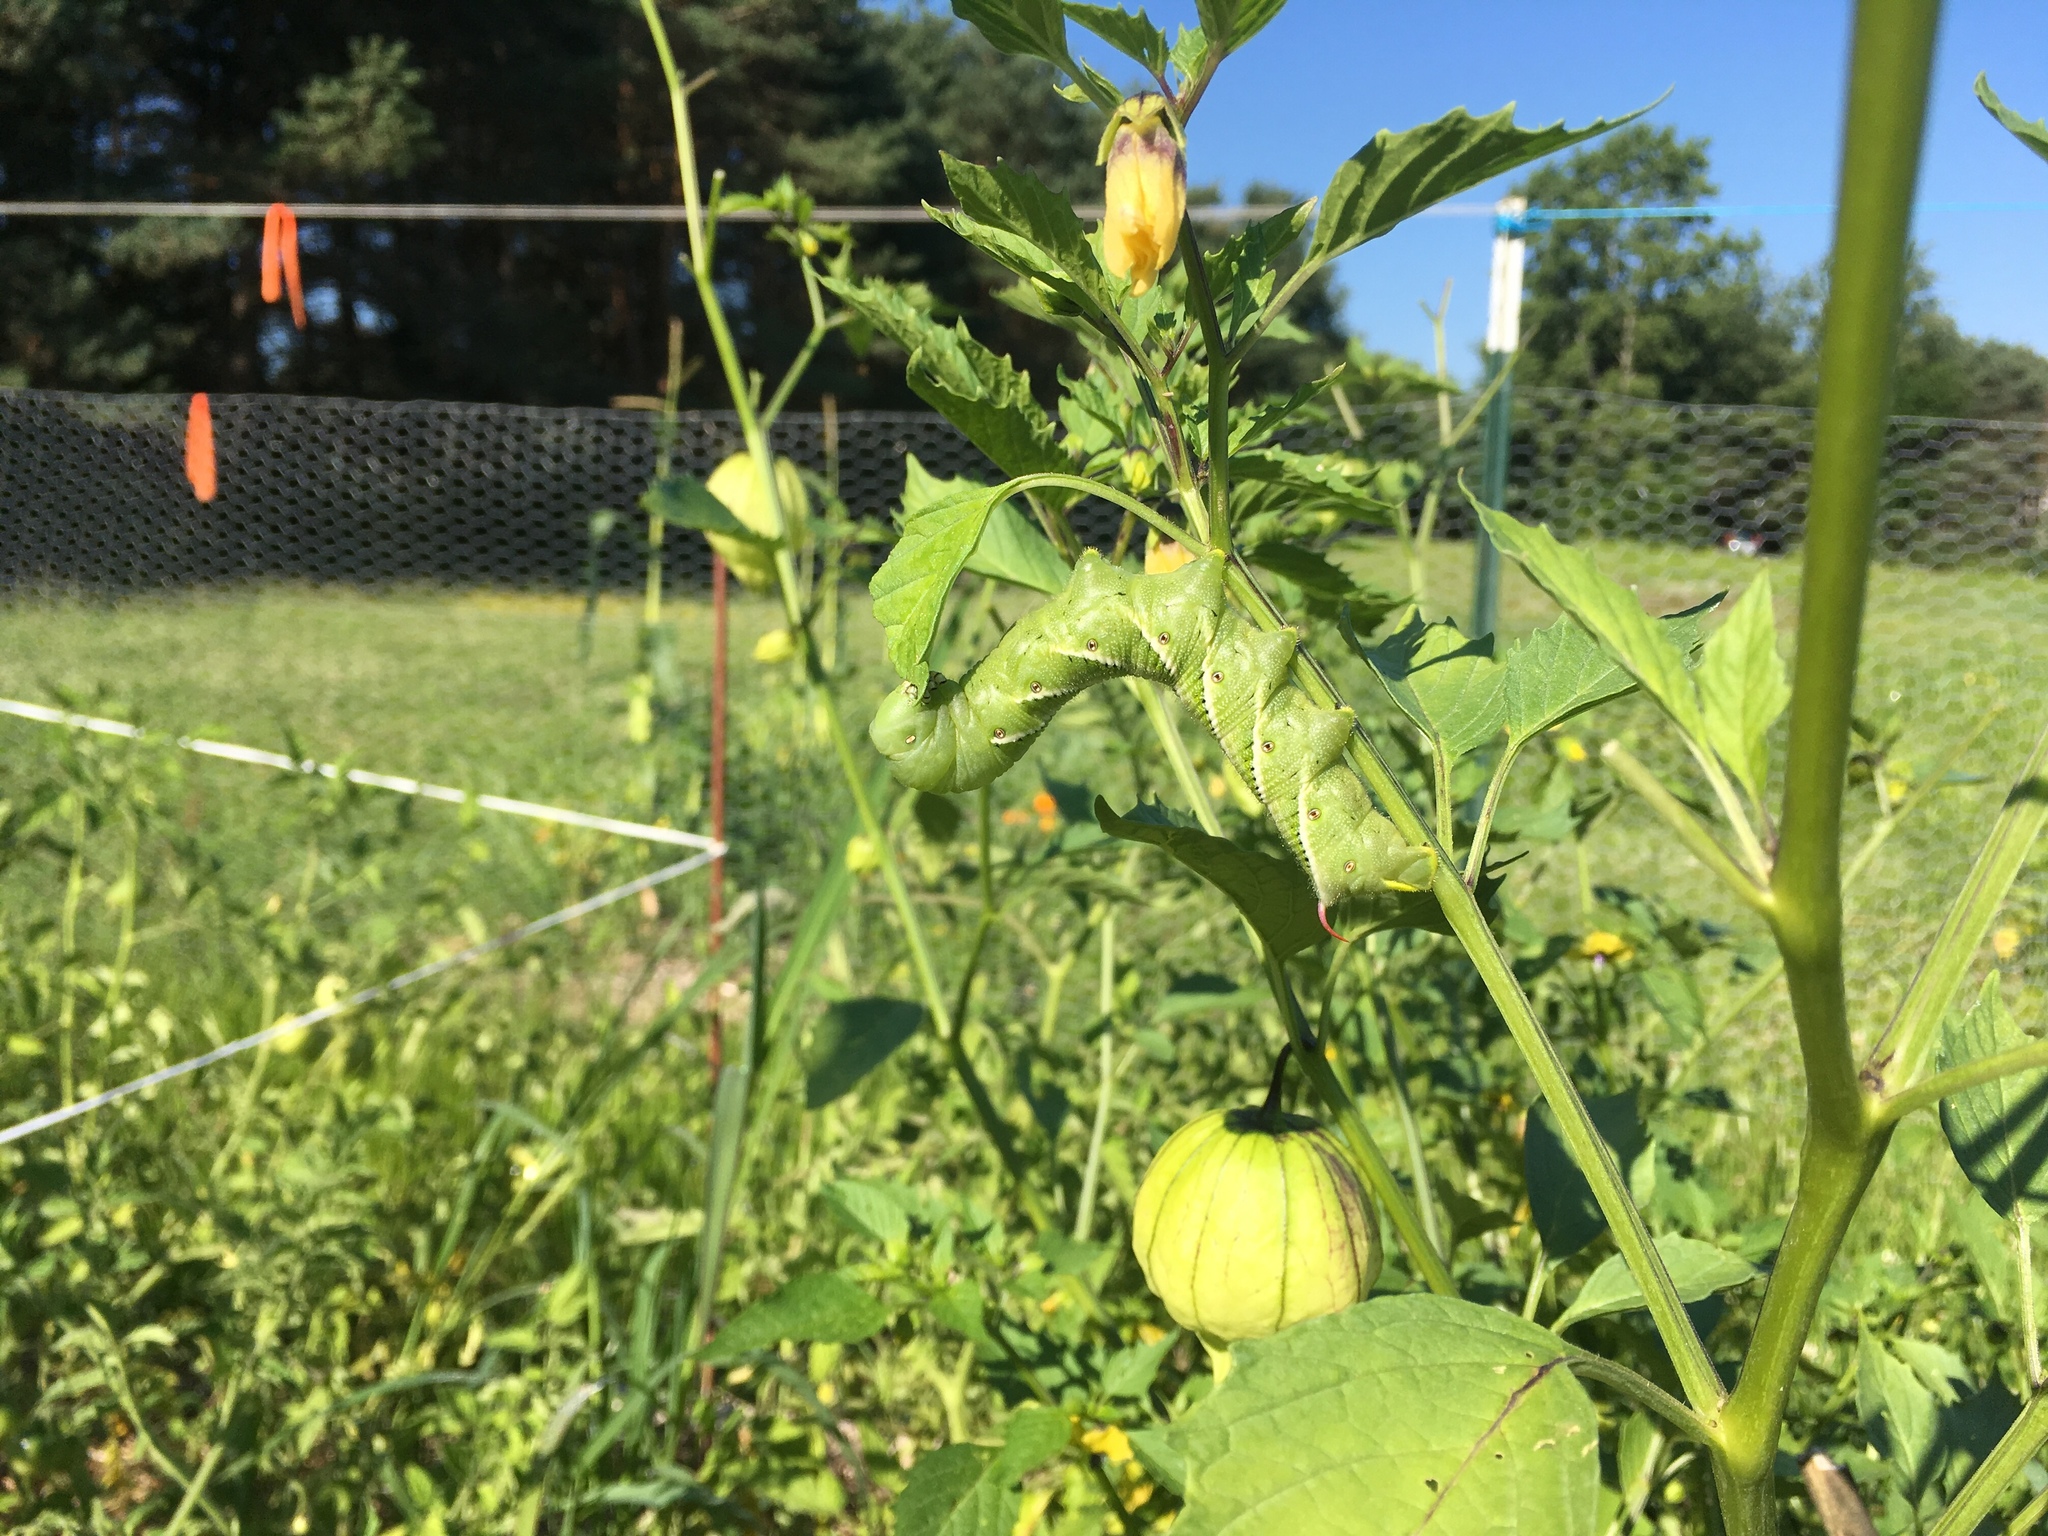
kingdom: Plantae
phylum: Tracheophyta
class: Magnoliopsida
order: Solanales
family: Solanaceae
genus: Physalis
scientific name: Physalis philadelphica
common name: Husk-tomato
